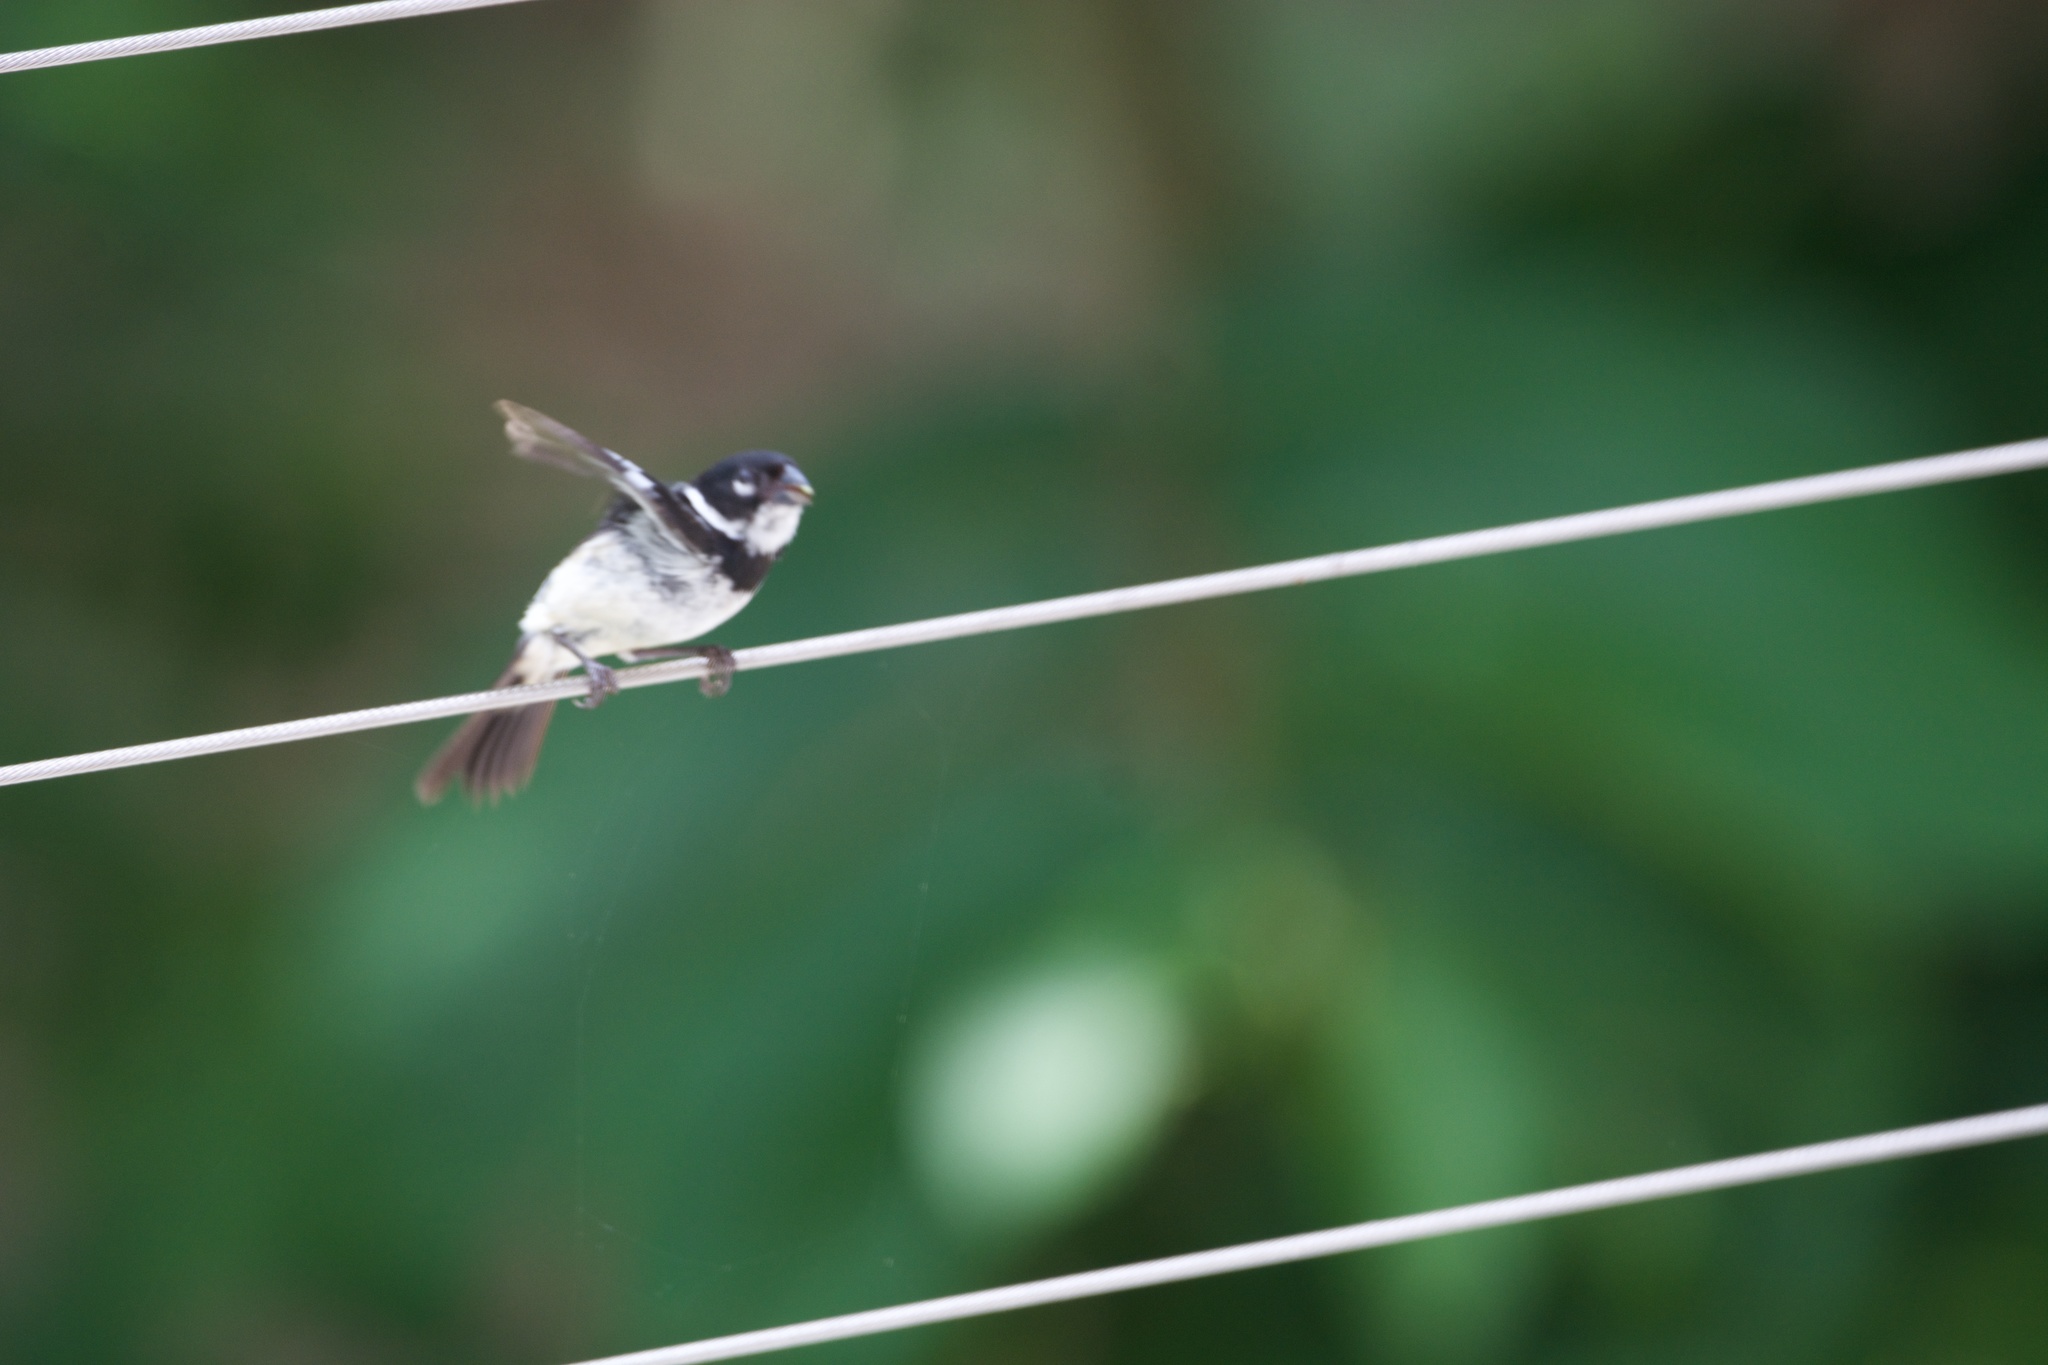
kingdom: Animalia
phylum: Chordata
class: Aves
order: Passeriformes
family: Thraupidae
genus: Sporophila
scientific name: Sporophila morelleti
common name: Morelet's seedeater
